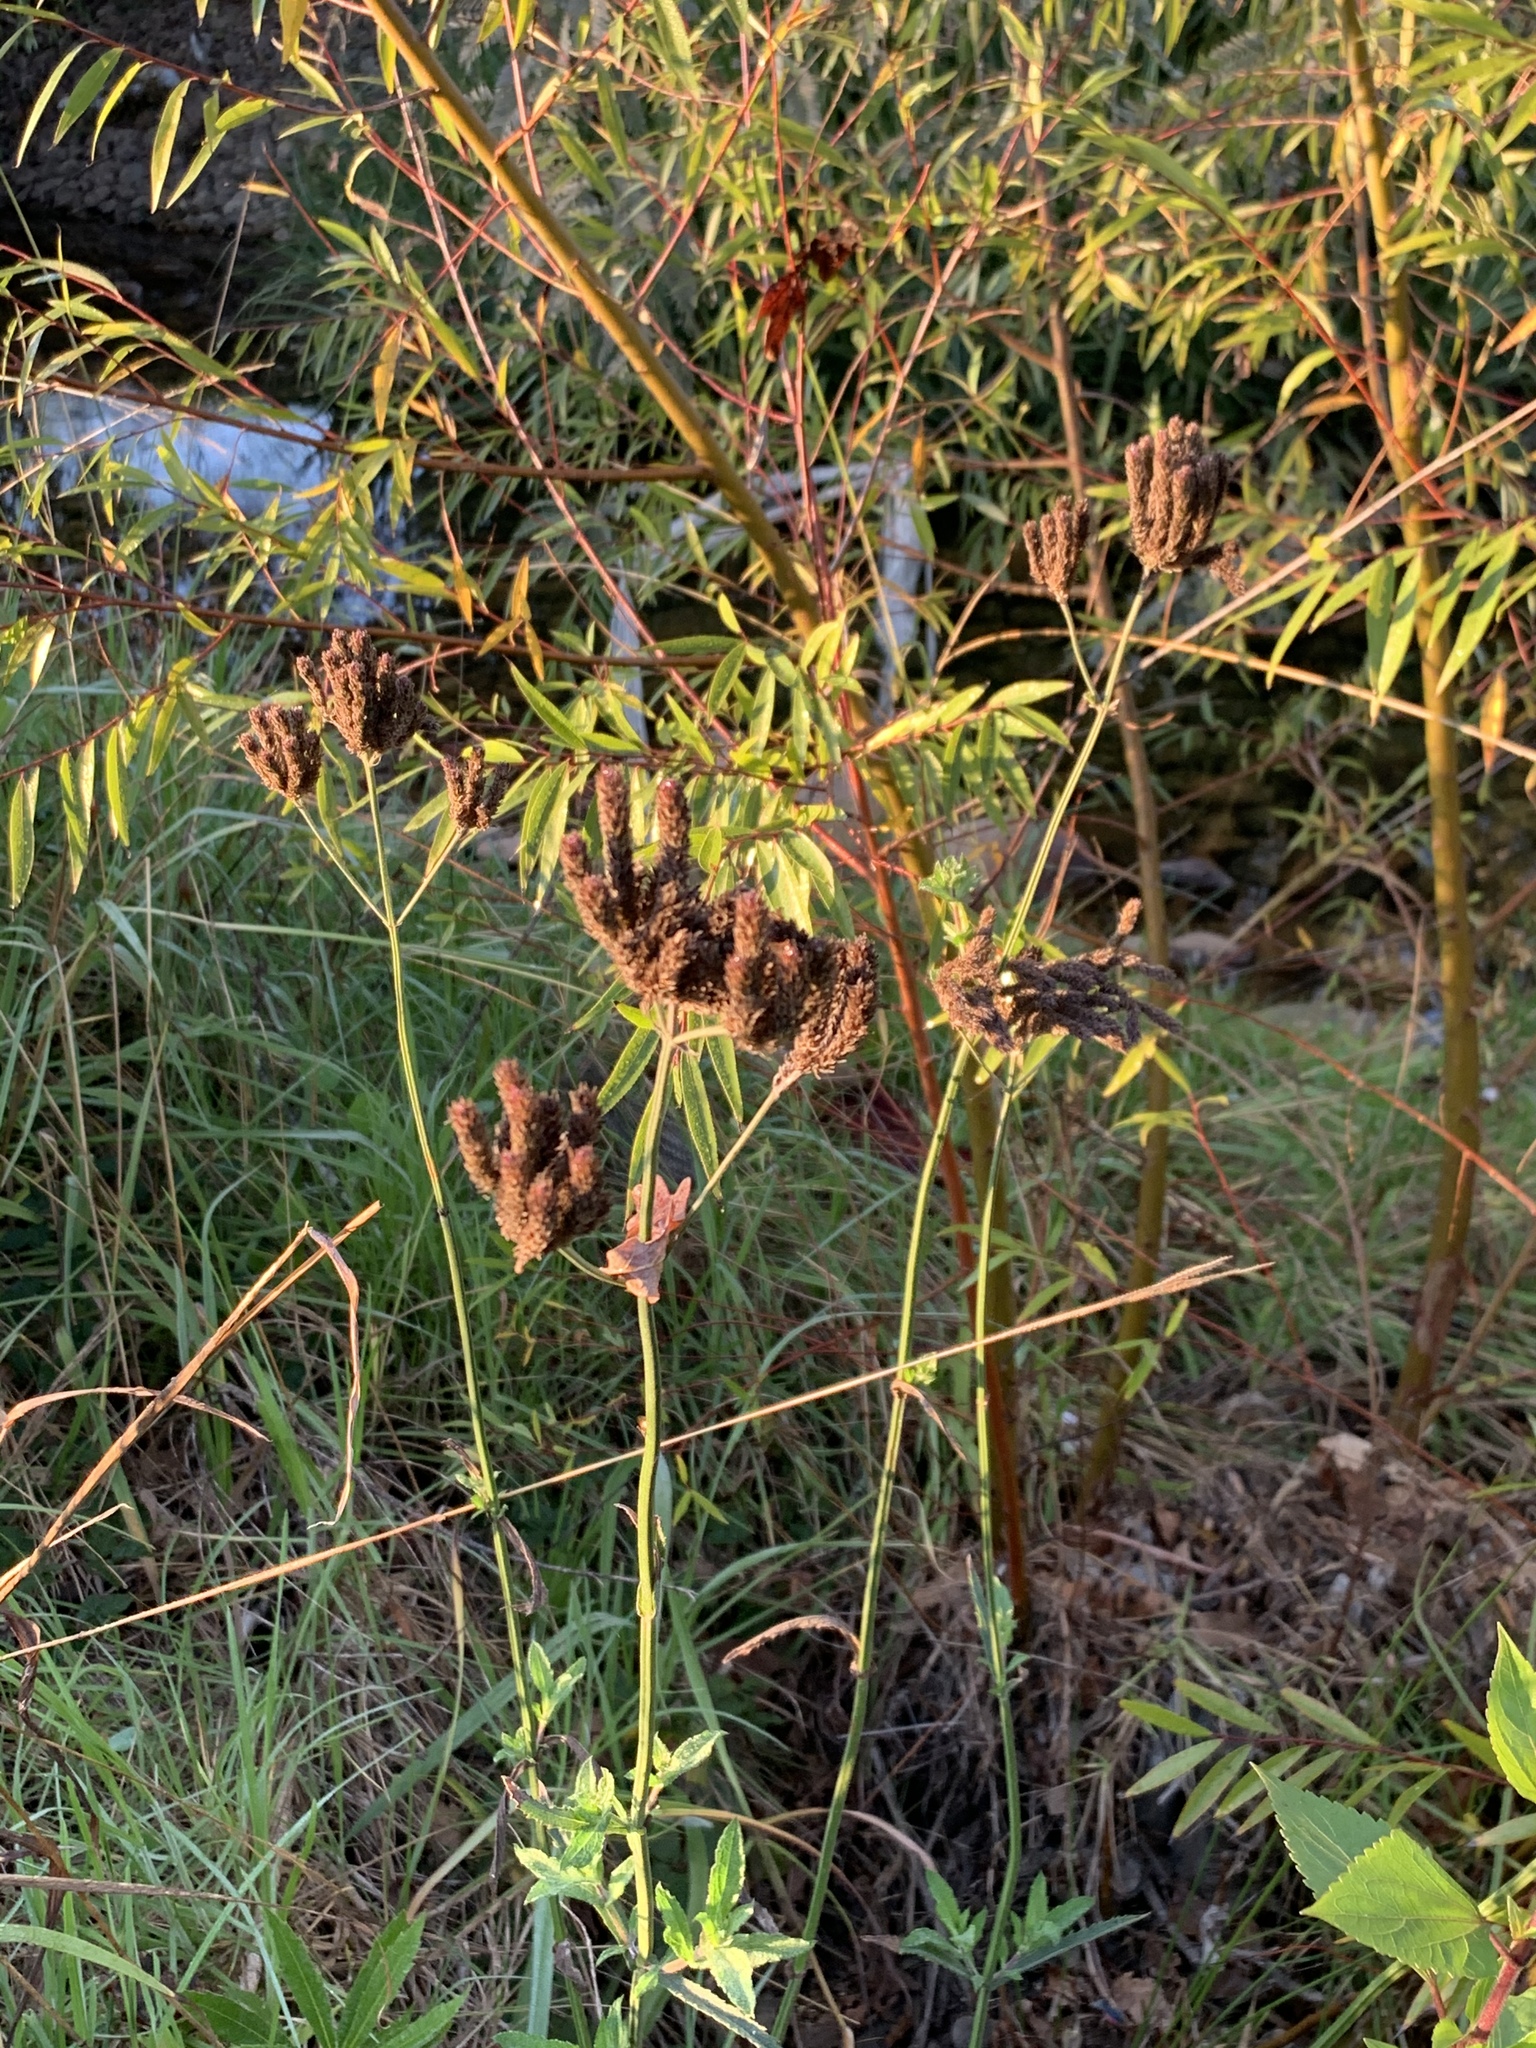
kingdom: Plantae
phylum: Tracheophyta
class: Magnoliopsida
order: Lamiales
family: Verbenaceae
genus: Verbena
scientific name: Verbena bonariensis
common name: Purpletop vervain
